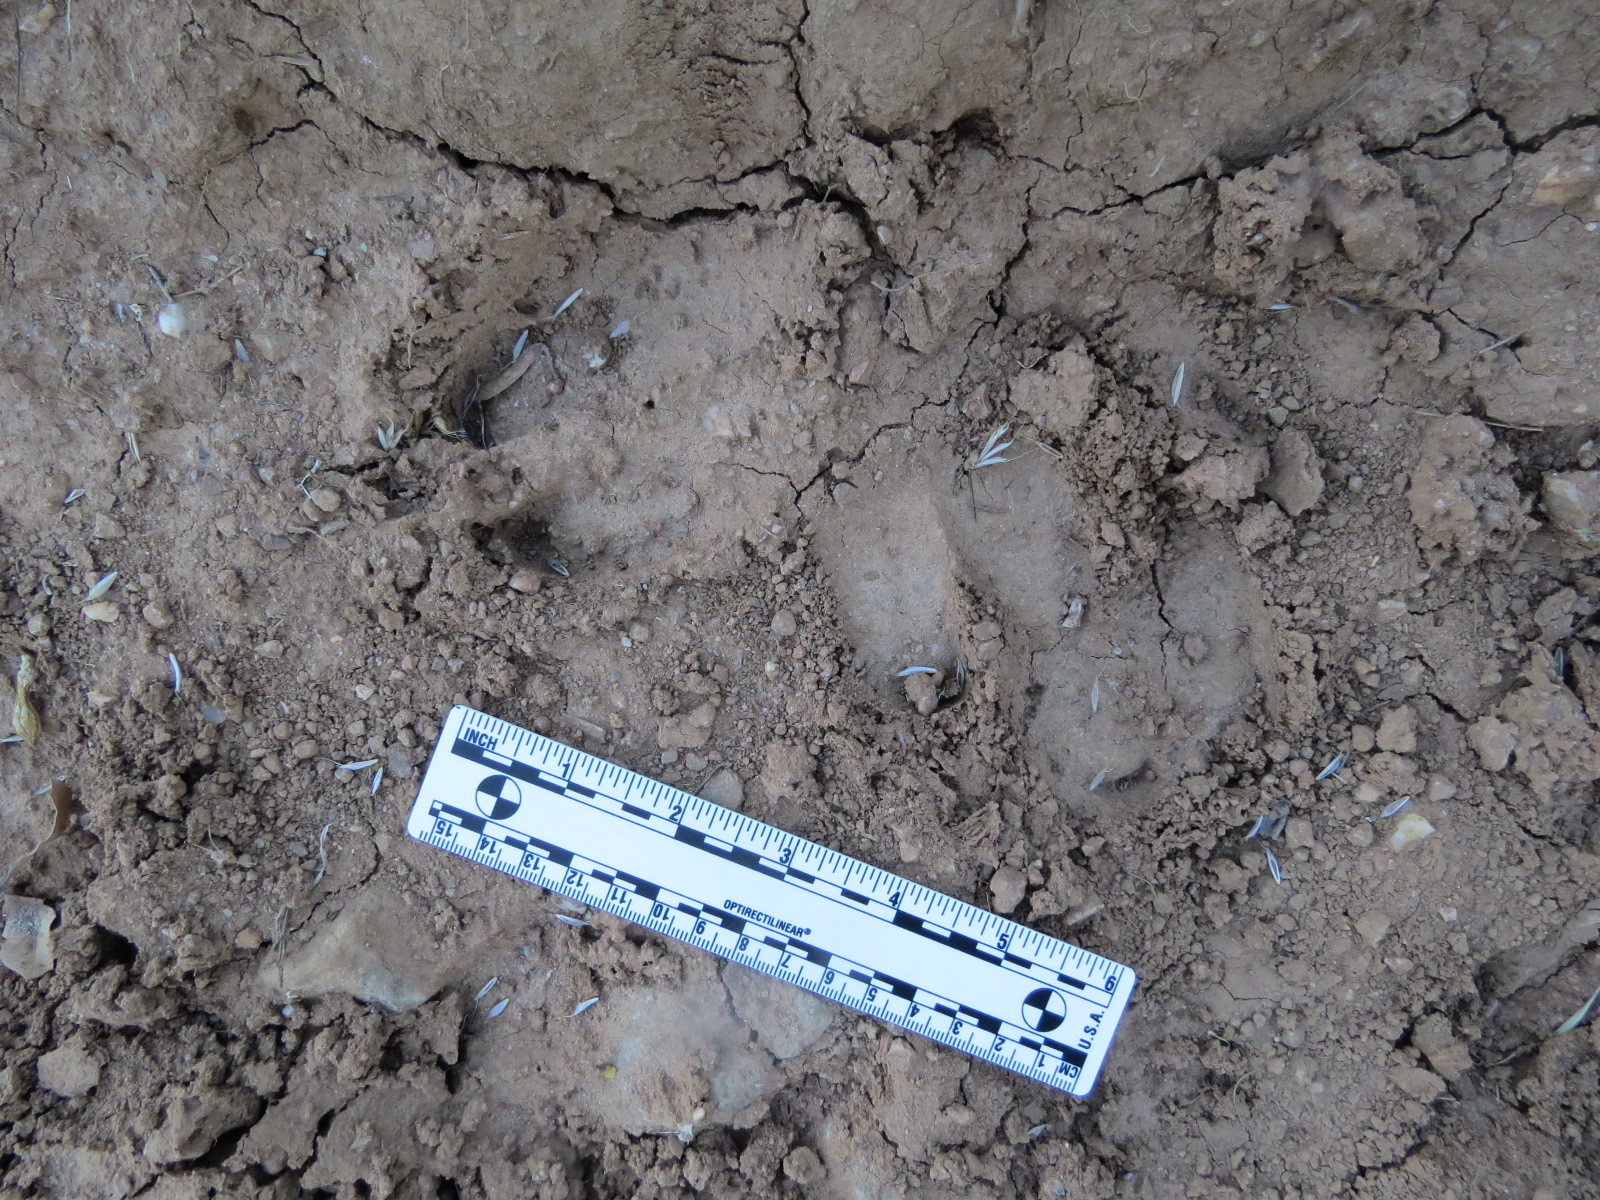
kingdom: Animalia
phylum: Chordata
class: Mammalia
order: Artiodactyla
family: Suidae
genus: Sus
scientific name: Sus scrofa
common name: Wild boar
